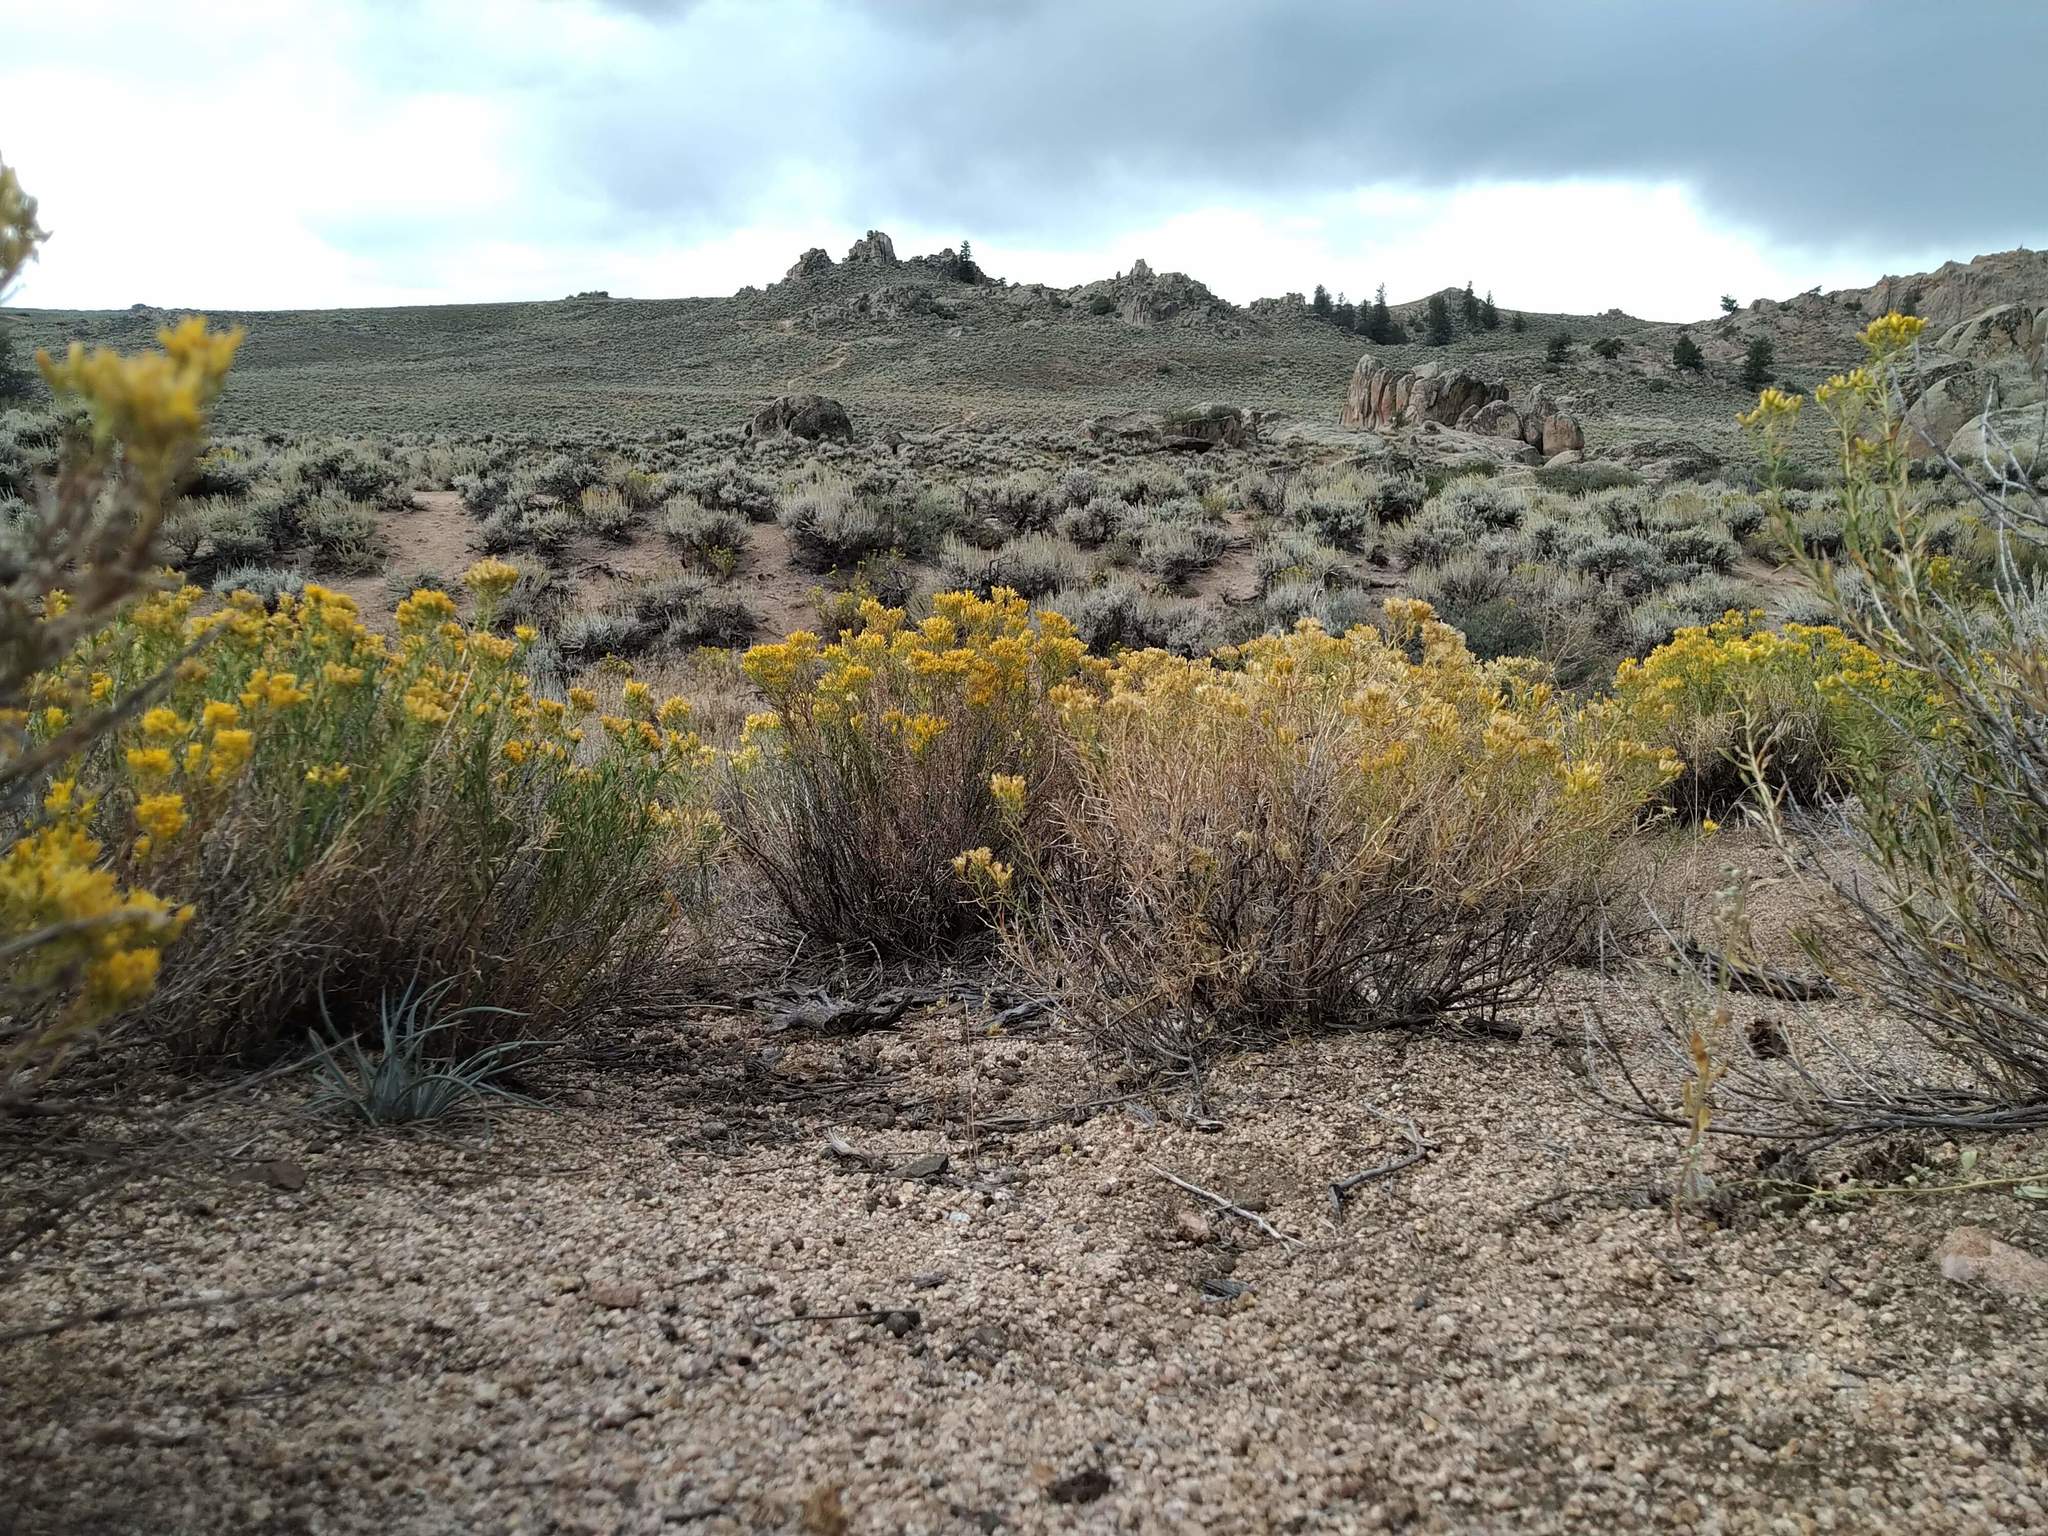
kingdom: Plantae
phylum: Tracheophyta
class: Magnoliopsida
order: Asterales
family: Asteraceae
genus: Chrysothamnus
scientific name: Chrysothamnus viscidiflorus
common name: Yellow rabbitbrush
